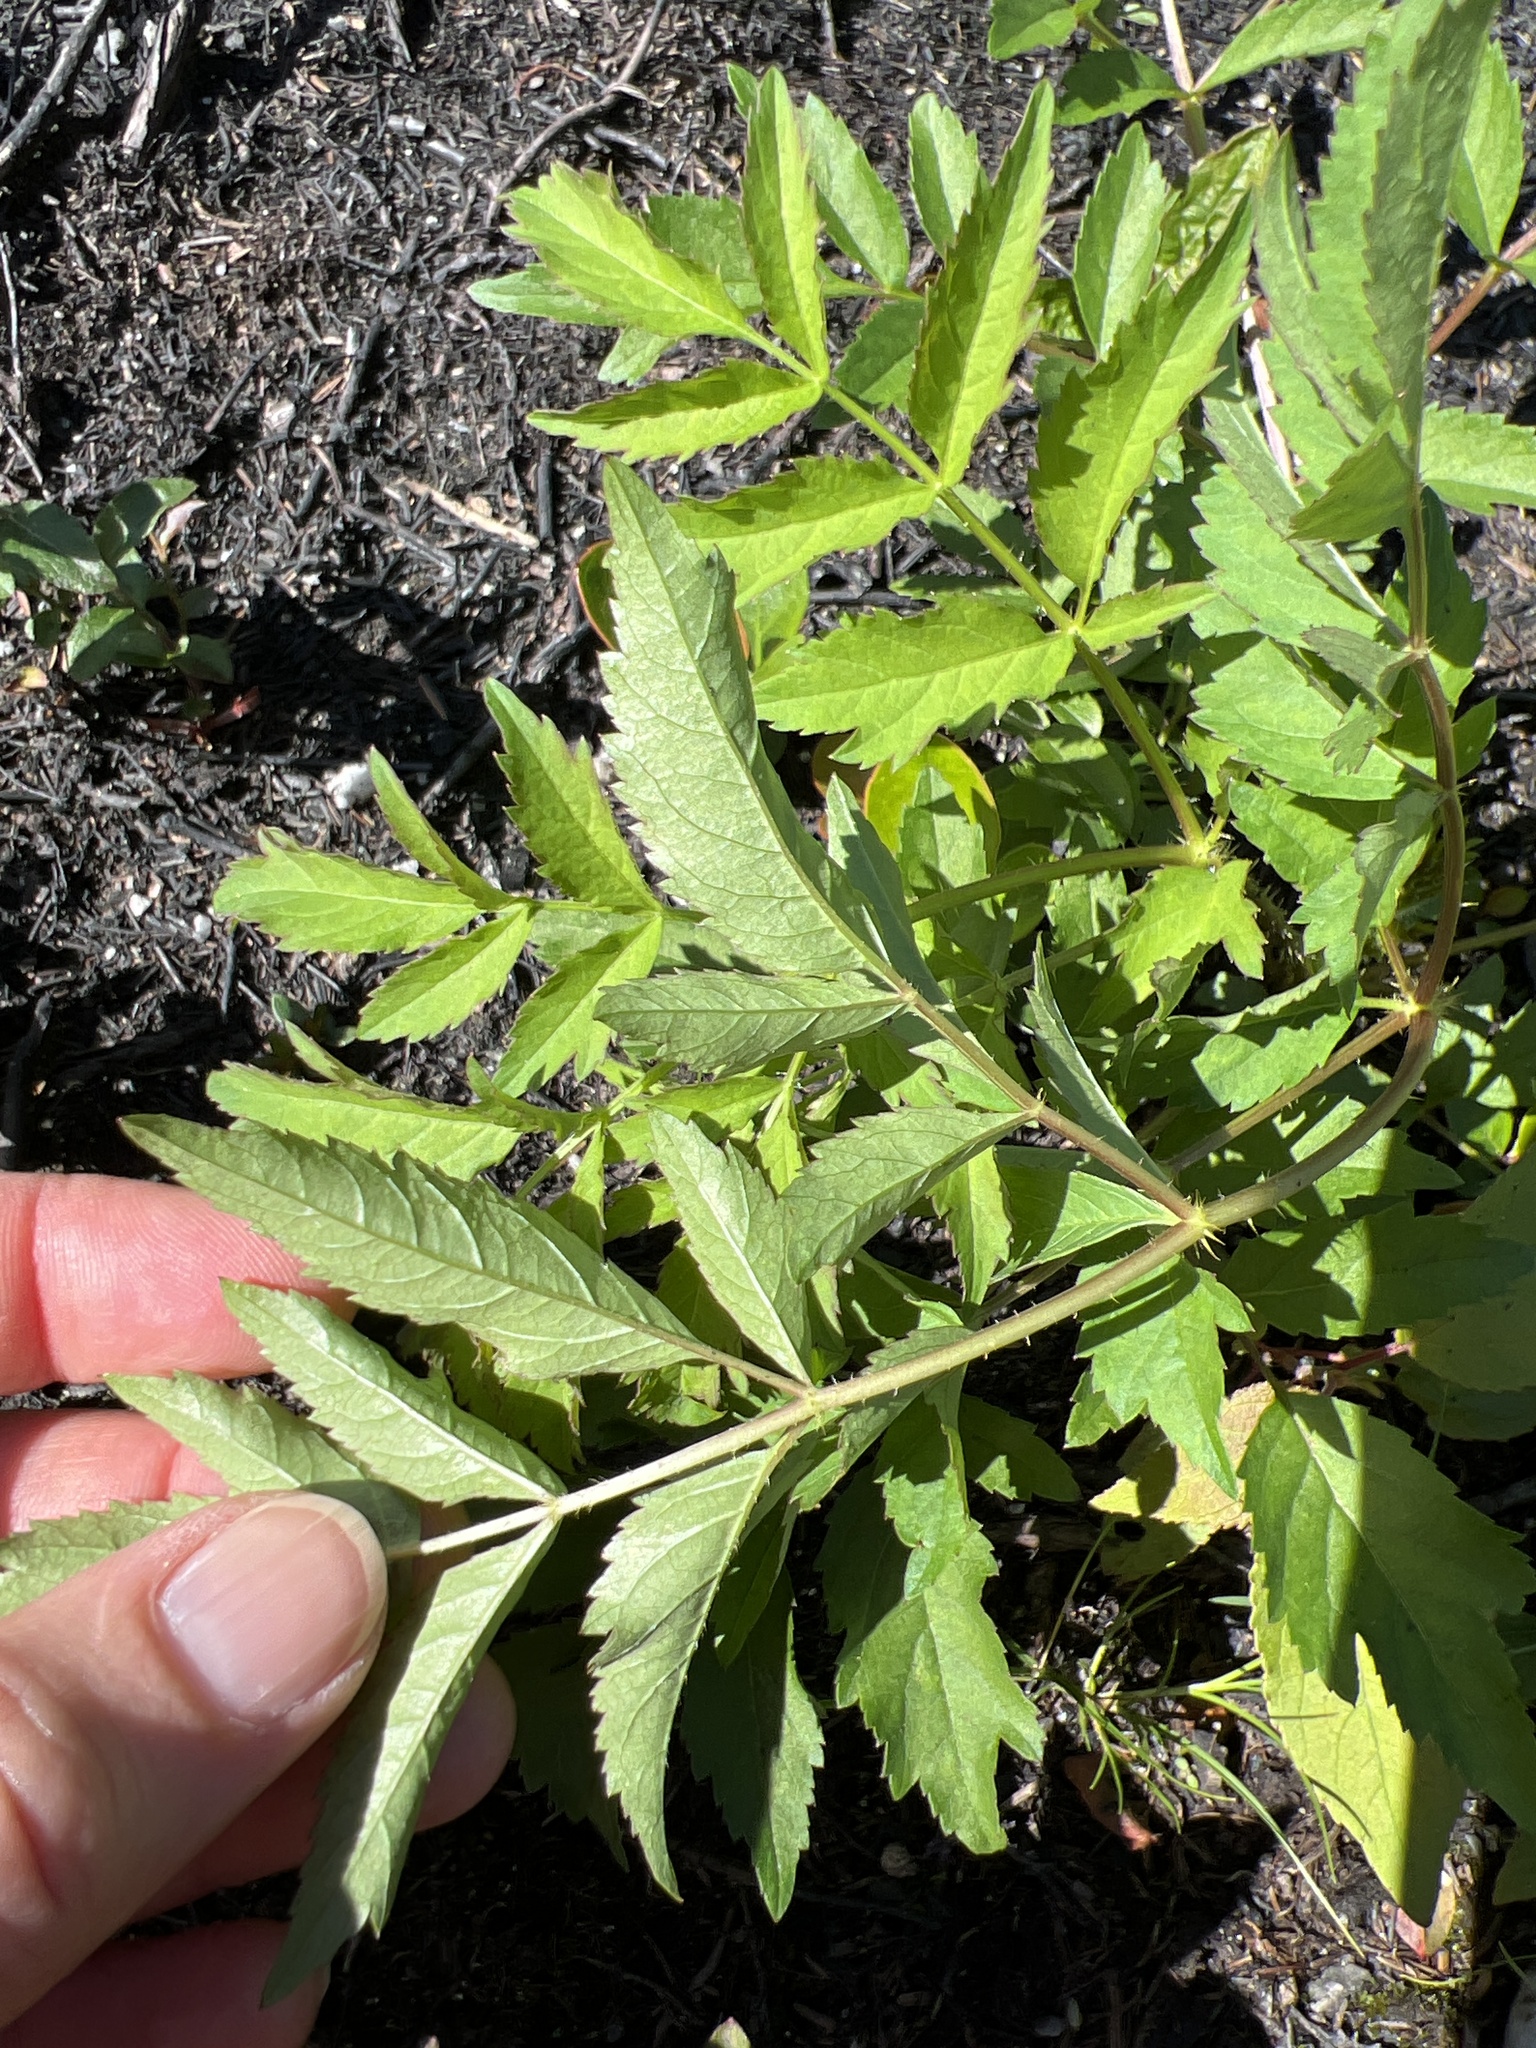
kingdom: Plantae
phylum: Tracheophyta
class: Magnoliopsida
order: Apiales
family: Araliaceae
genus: Aralia
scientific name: Aralia hispida
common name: Bristly sarsaparilla
